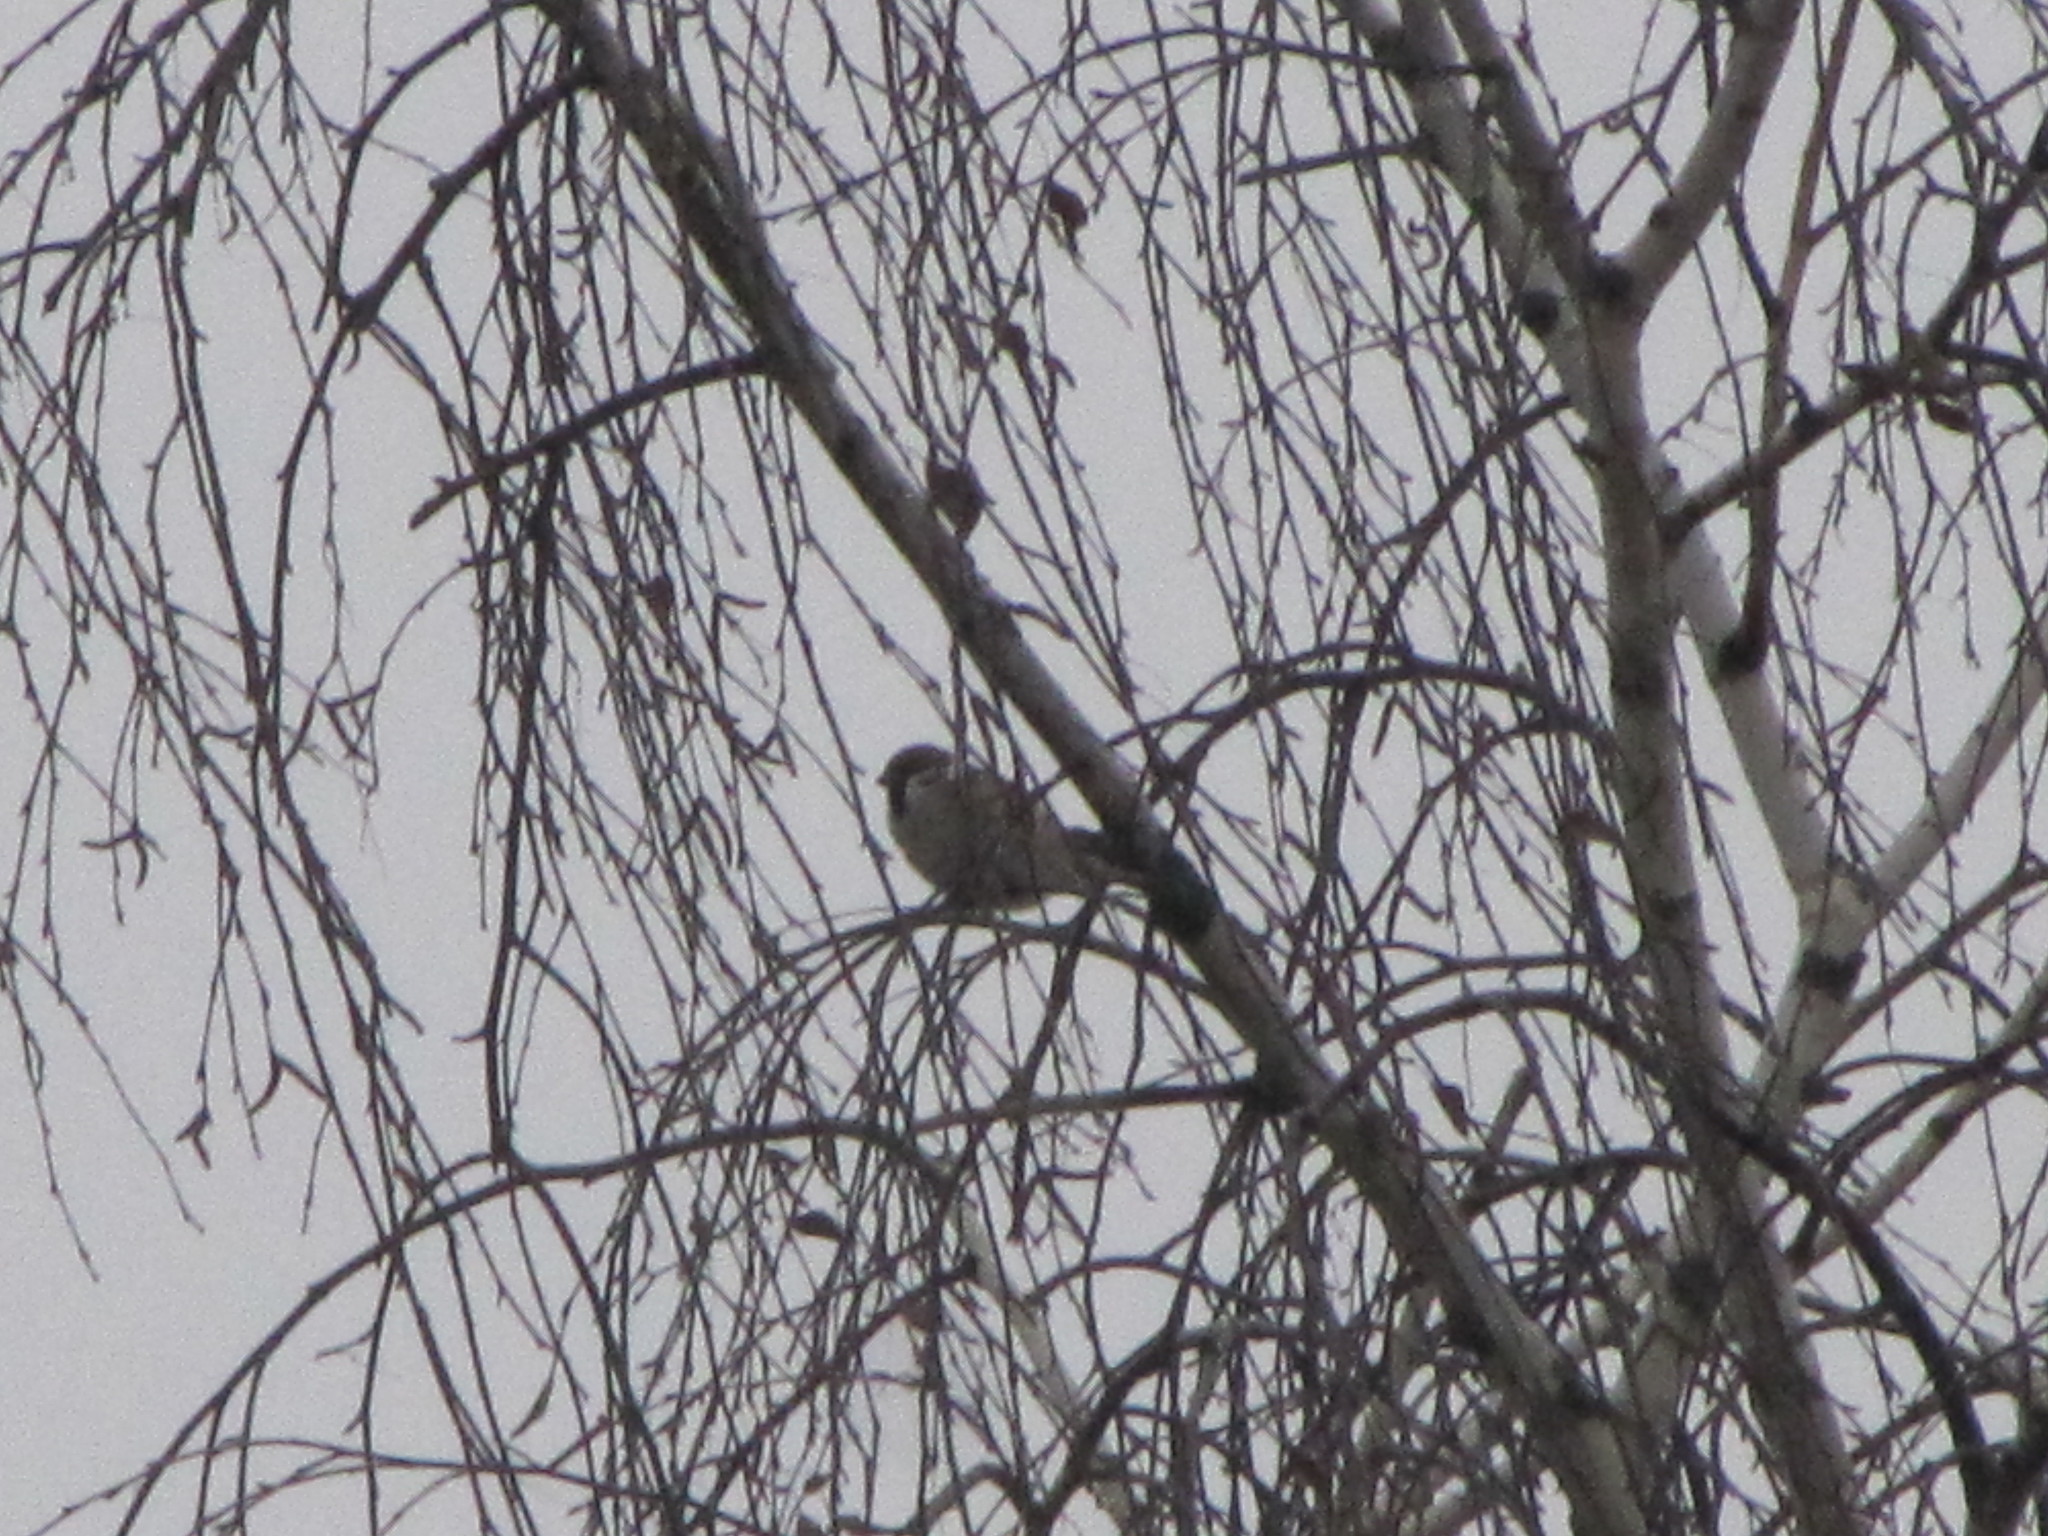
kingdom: Animalia
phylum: Chordata
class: Aves
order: Passeriformes
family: Passeridae
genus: Passer
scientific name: Passer montanus
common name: Eurasian tree sparrow
